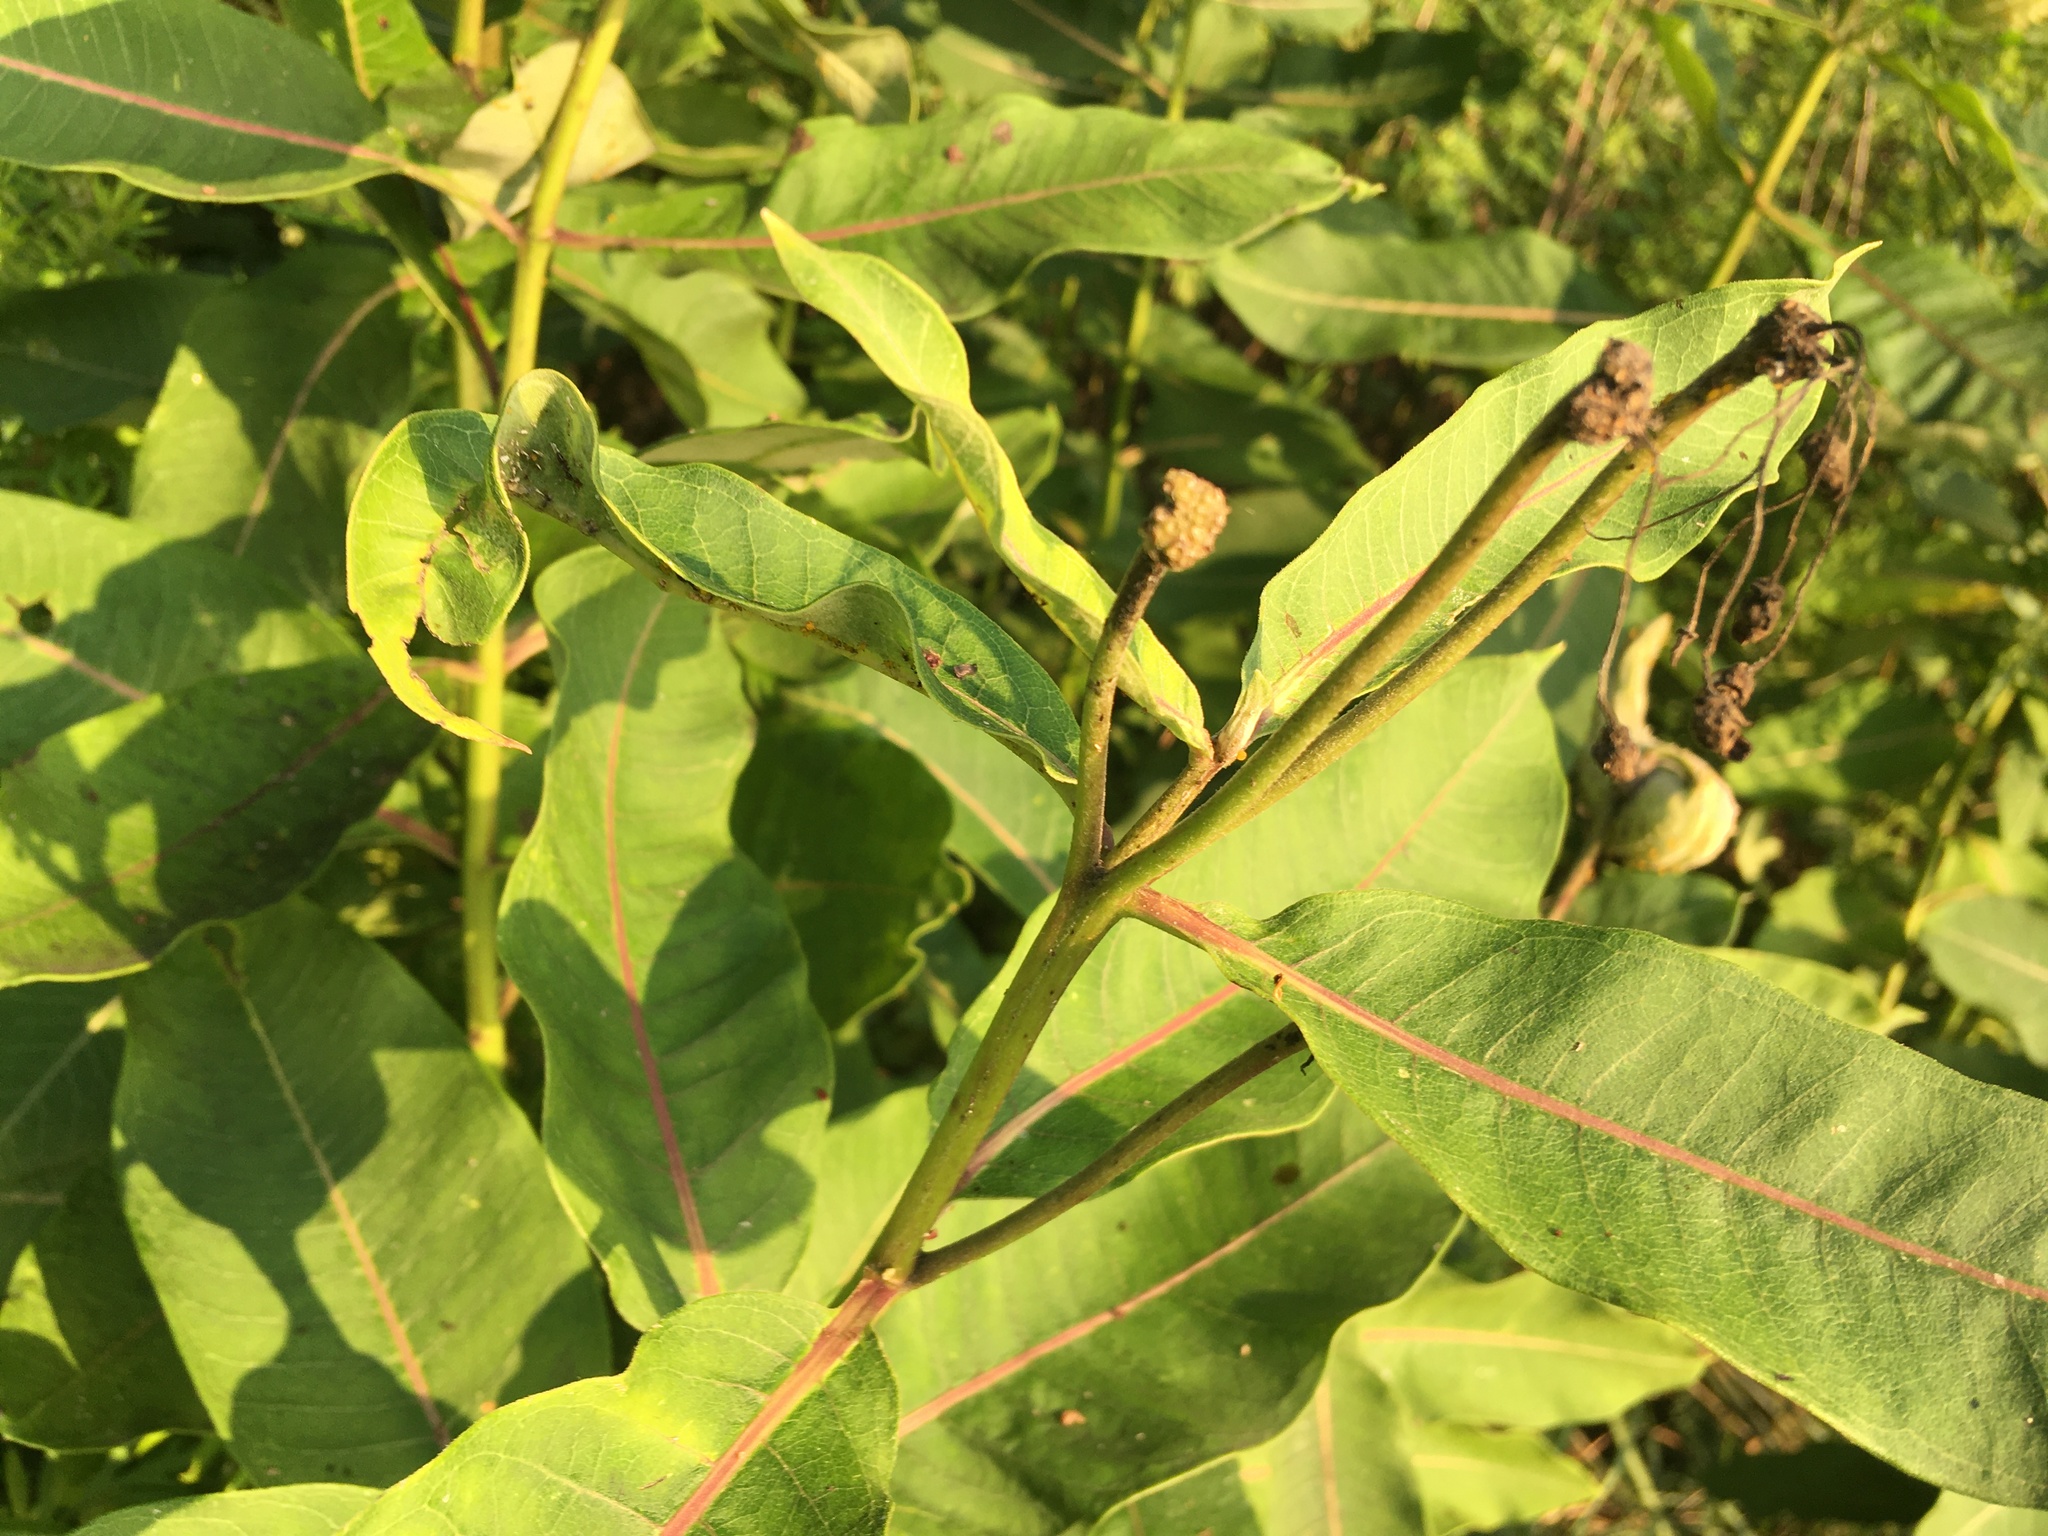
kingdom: Plantae
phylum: Tracheophyta
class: Magnoliopsida
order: Gentianales
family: Apocynaceae
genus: Asclepias
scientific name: Asclepias syriaca
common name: Common milkweed
